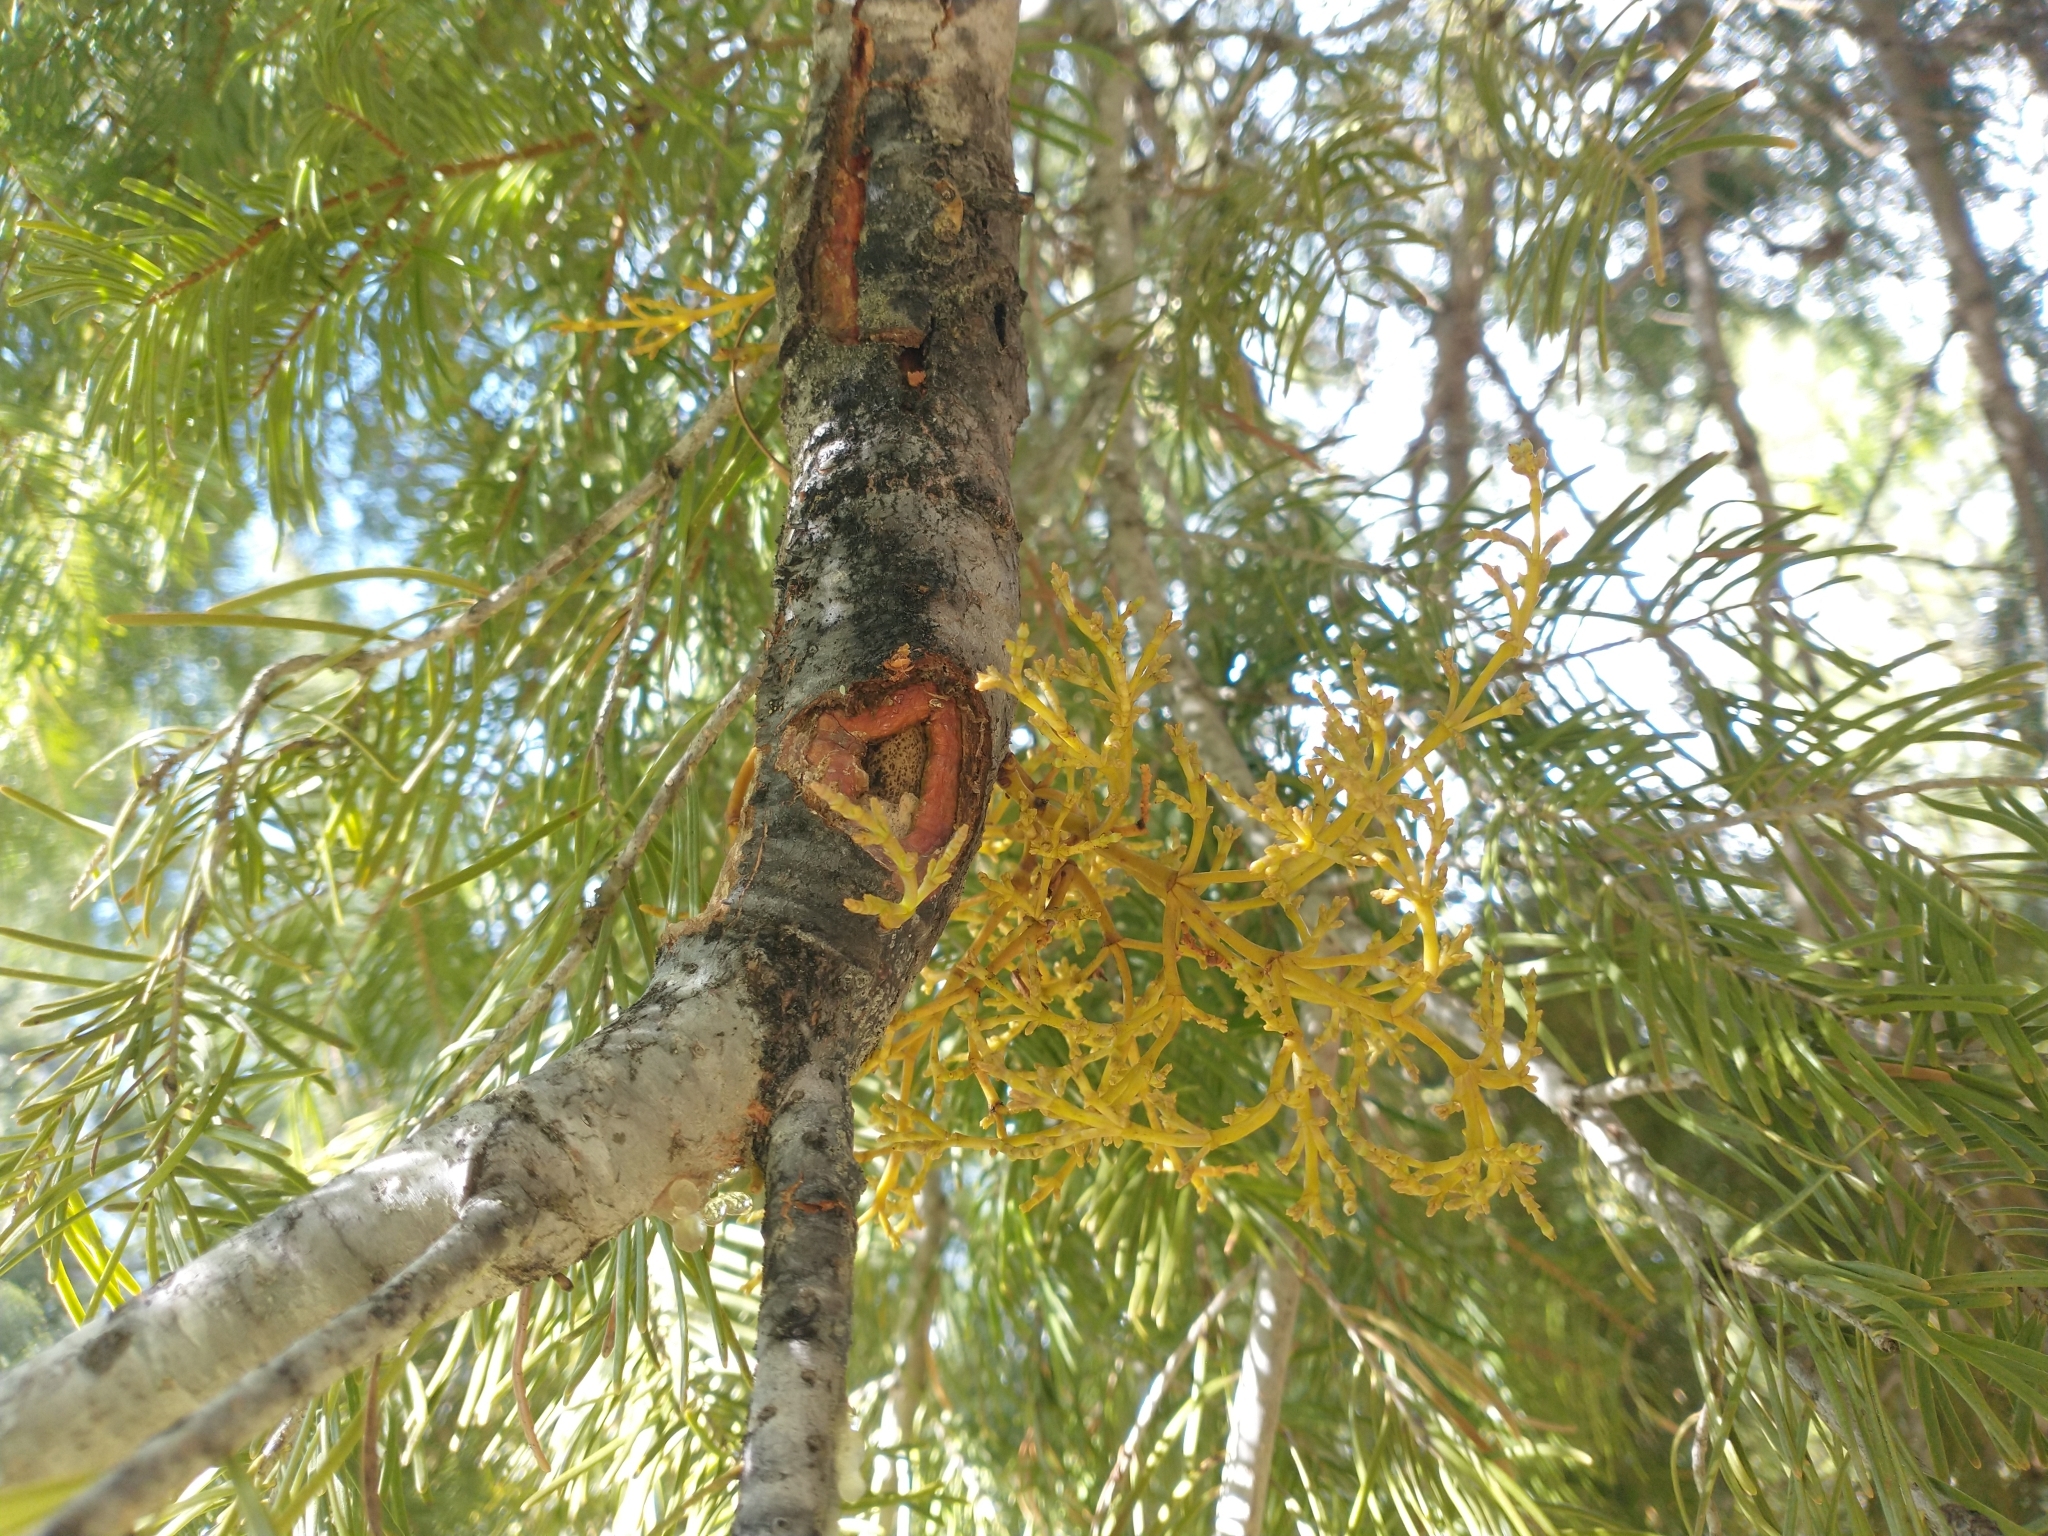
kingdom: Plantae
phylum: Tracheophyta
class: Magnoliopsida
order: Santalales
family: Viscaceae
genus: Arceuthobium
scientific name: Arceuthobium abietinum
